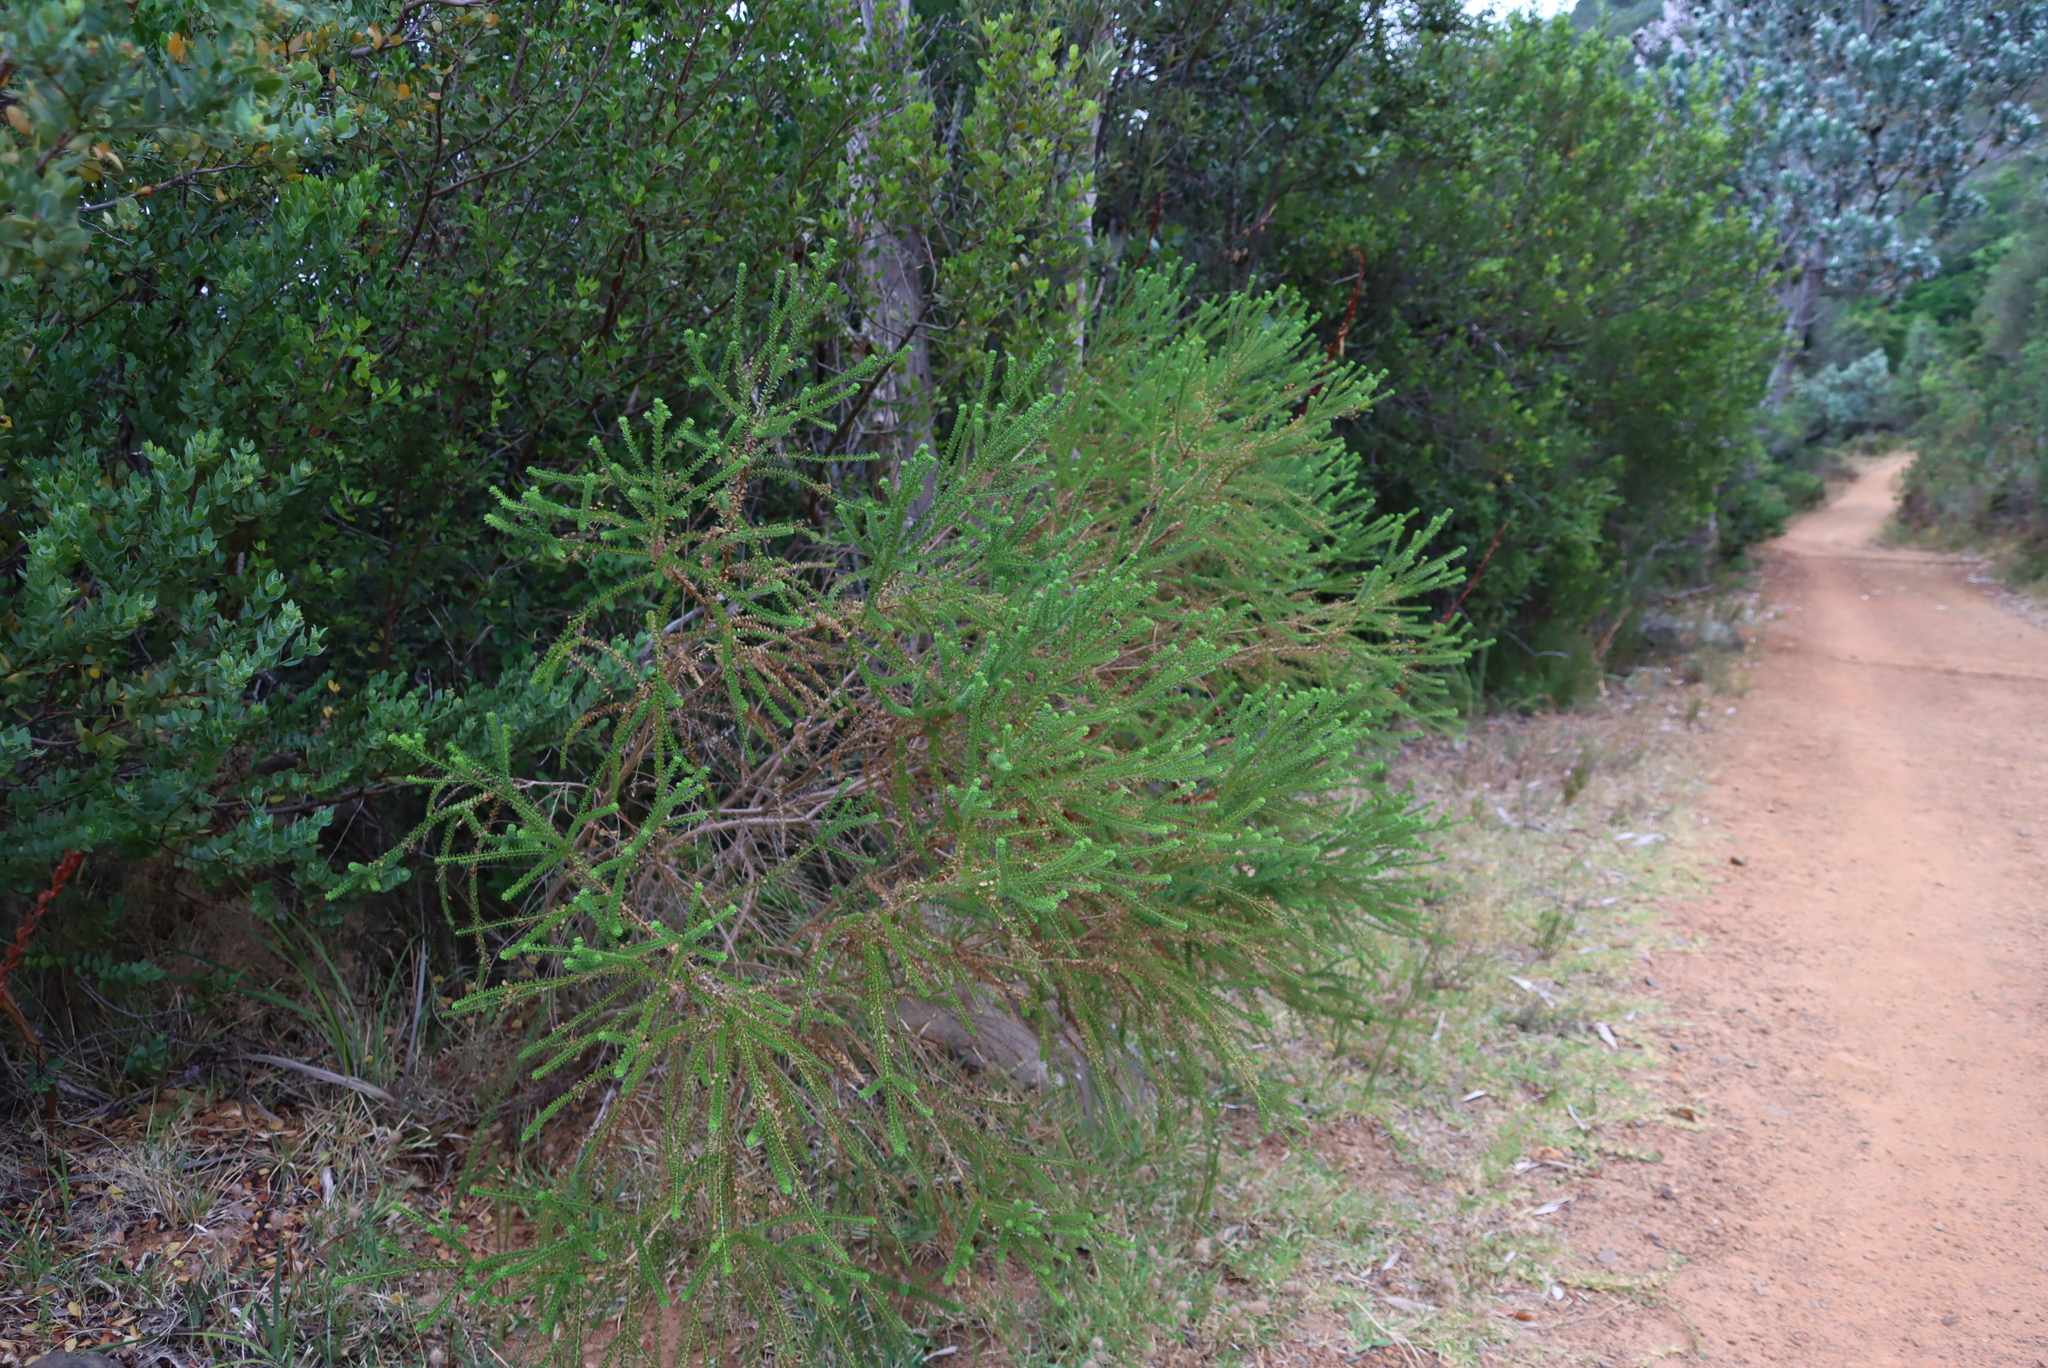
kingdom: Plantae
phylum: Tracheophyta
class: Magnoliopsida
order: Asterales
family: Asteraceae
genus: Euryops
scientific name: Euryops virgineus
